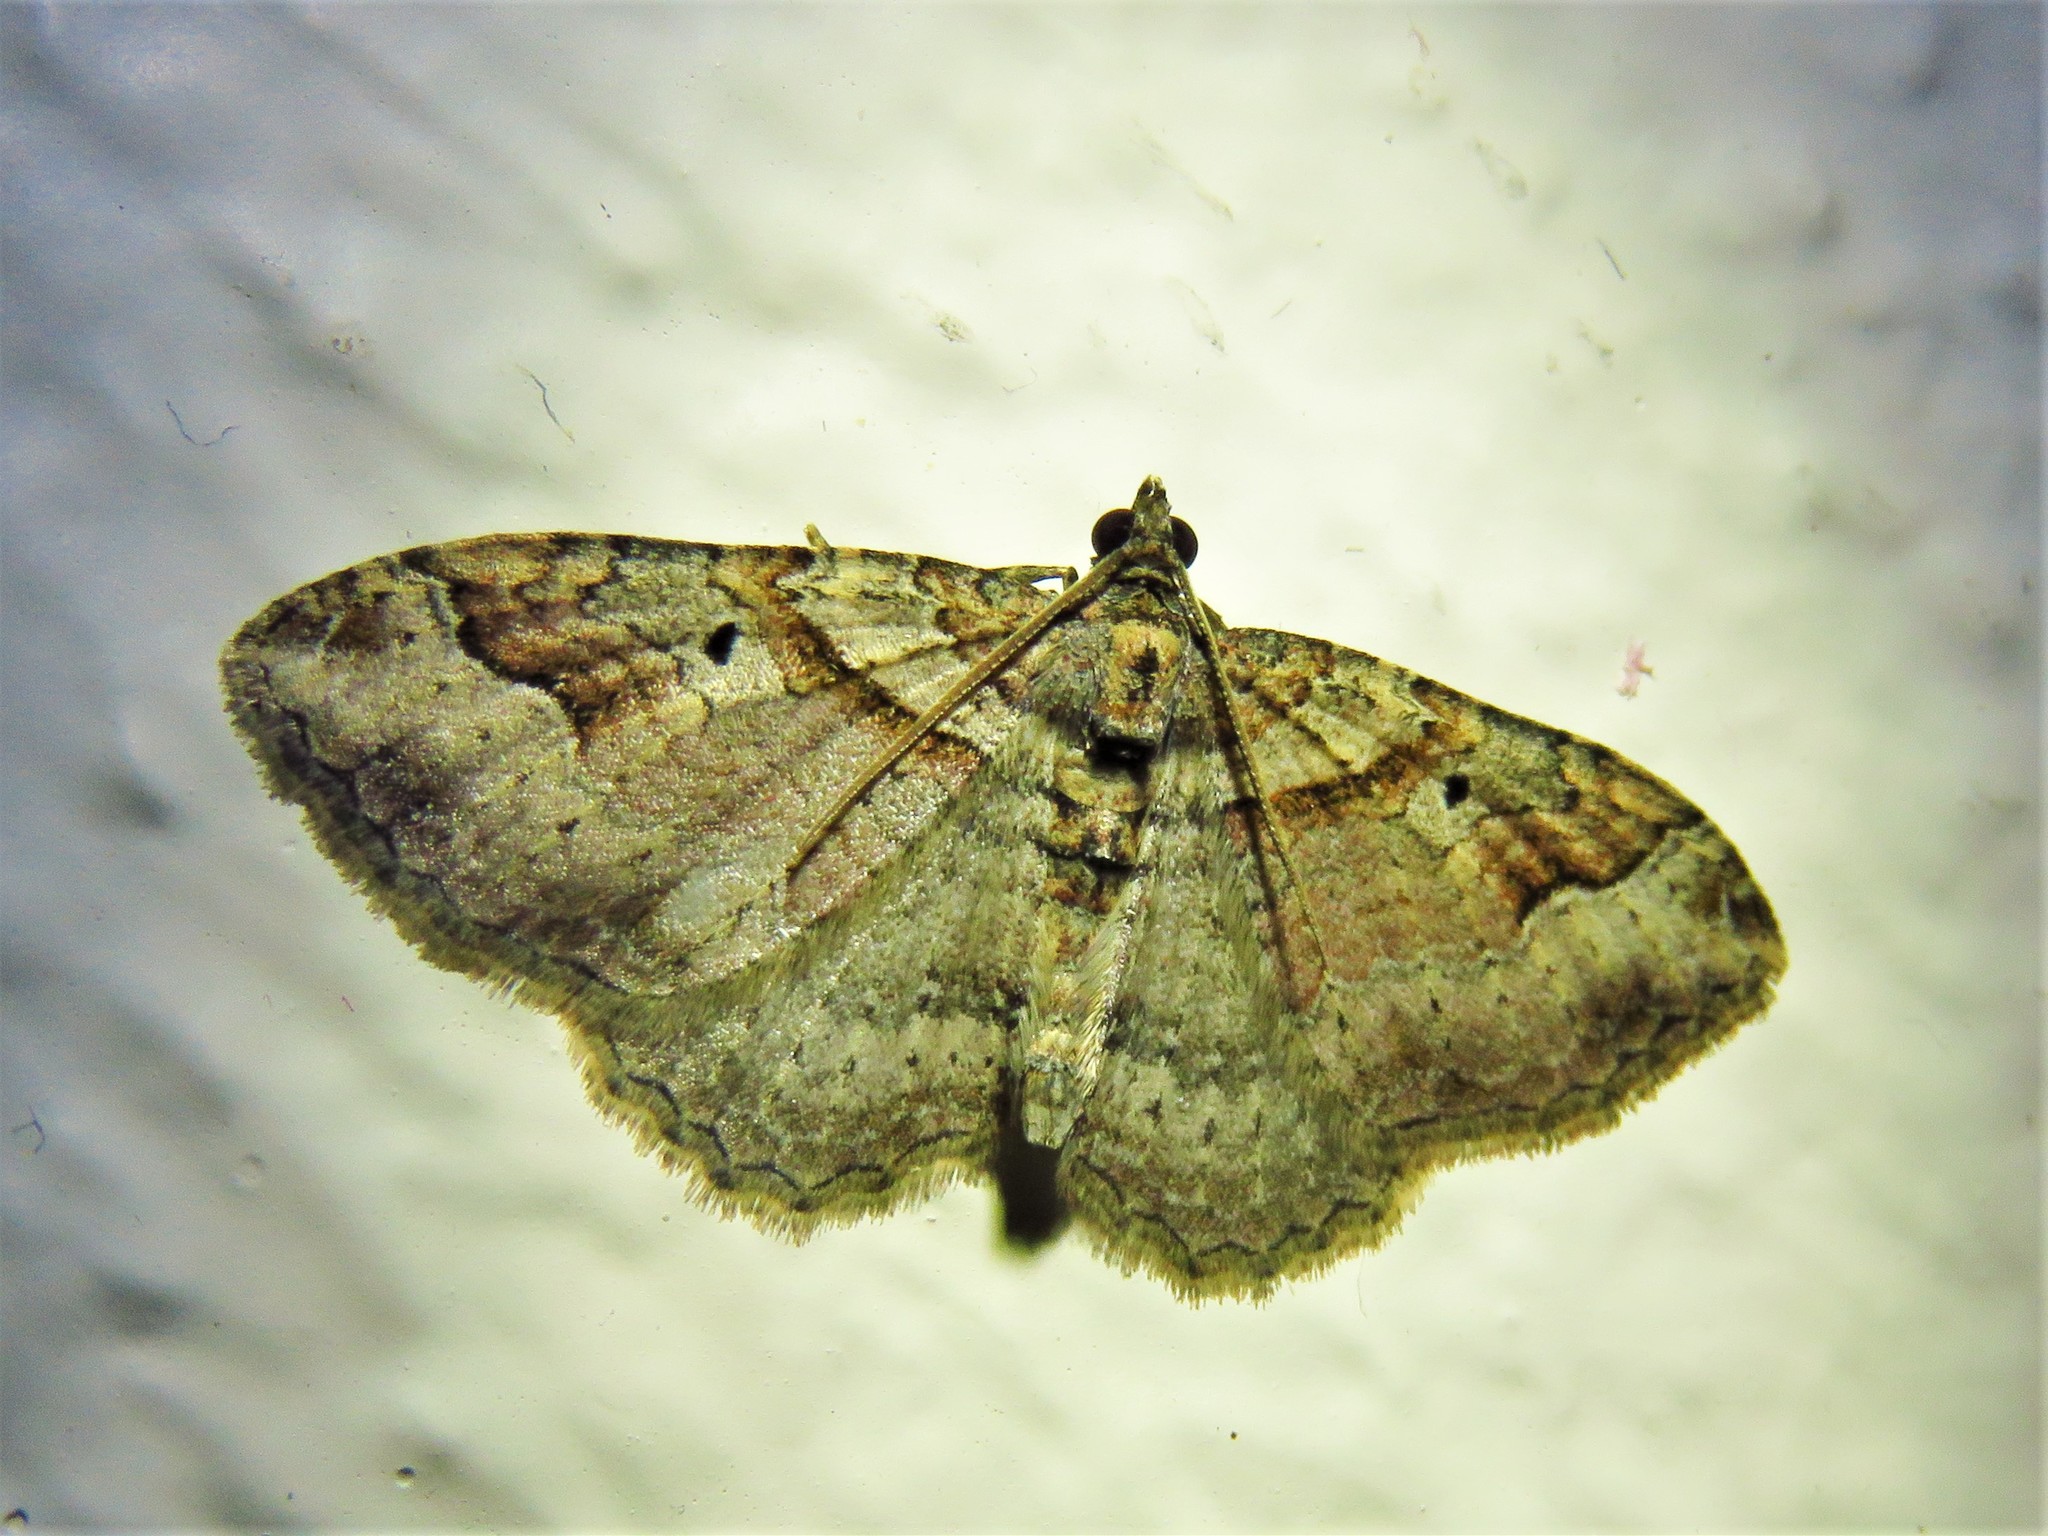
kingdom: Animalia
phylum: Arthropoda
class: Insecta
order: Lepidoptera
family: Geometridae
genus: Costaconvexa
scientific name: Costaconvexa centrostrigaria
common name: Bent-line carpet
